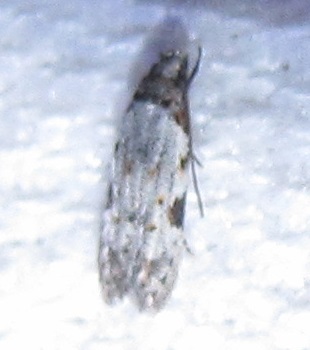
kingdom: Animalia
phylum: Arthropoda
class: Insecta
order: Lepidoptera
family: Autostichidae
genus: Taygete
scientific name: Taygete attributella
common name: Triangle-marked twirler moth
